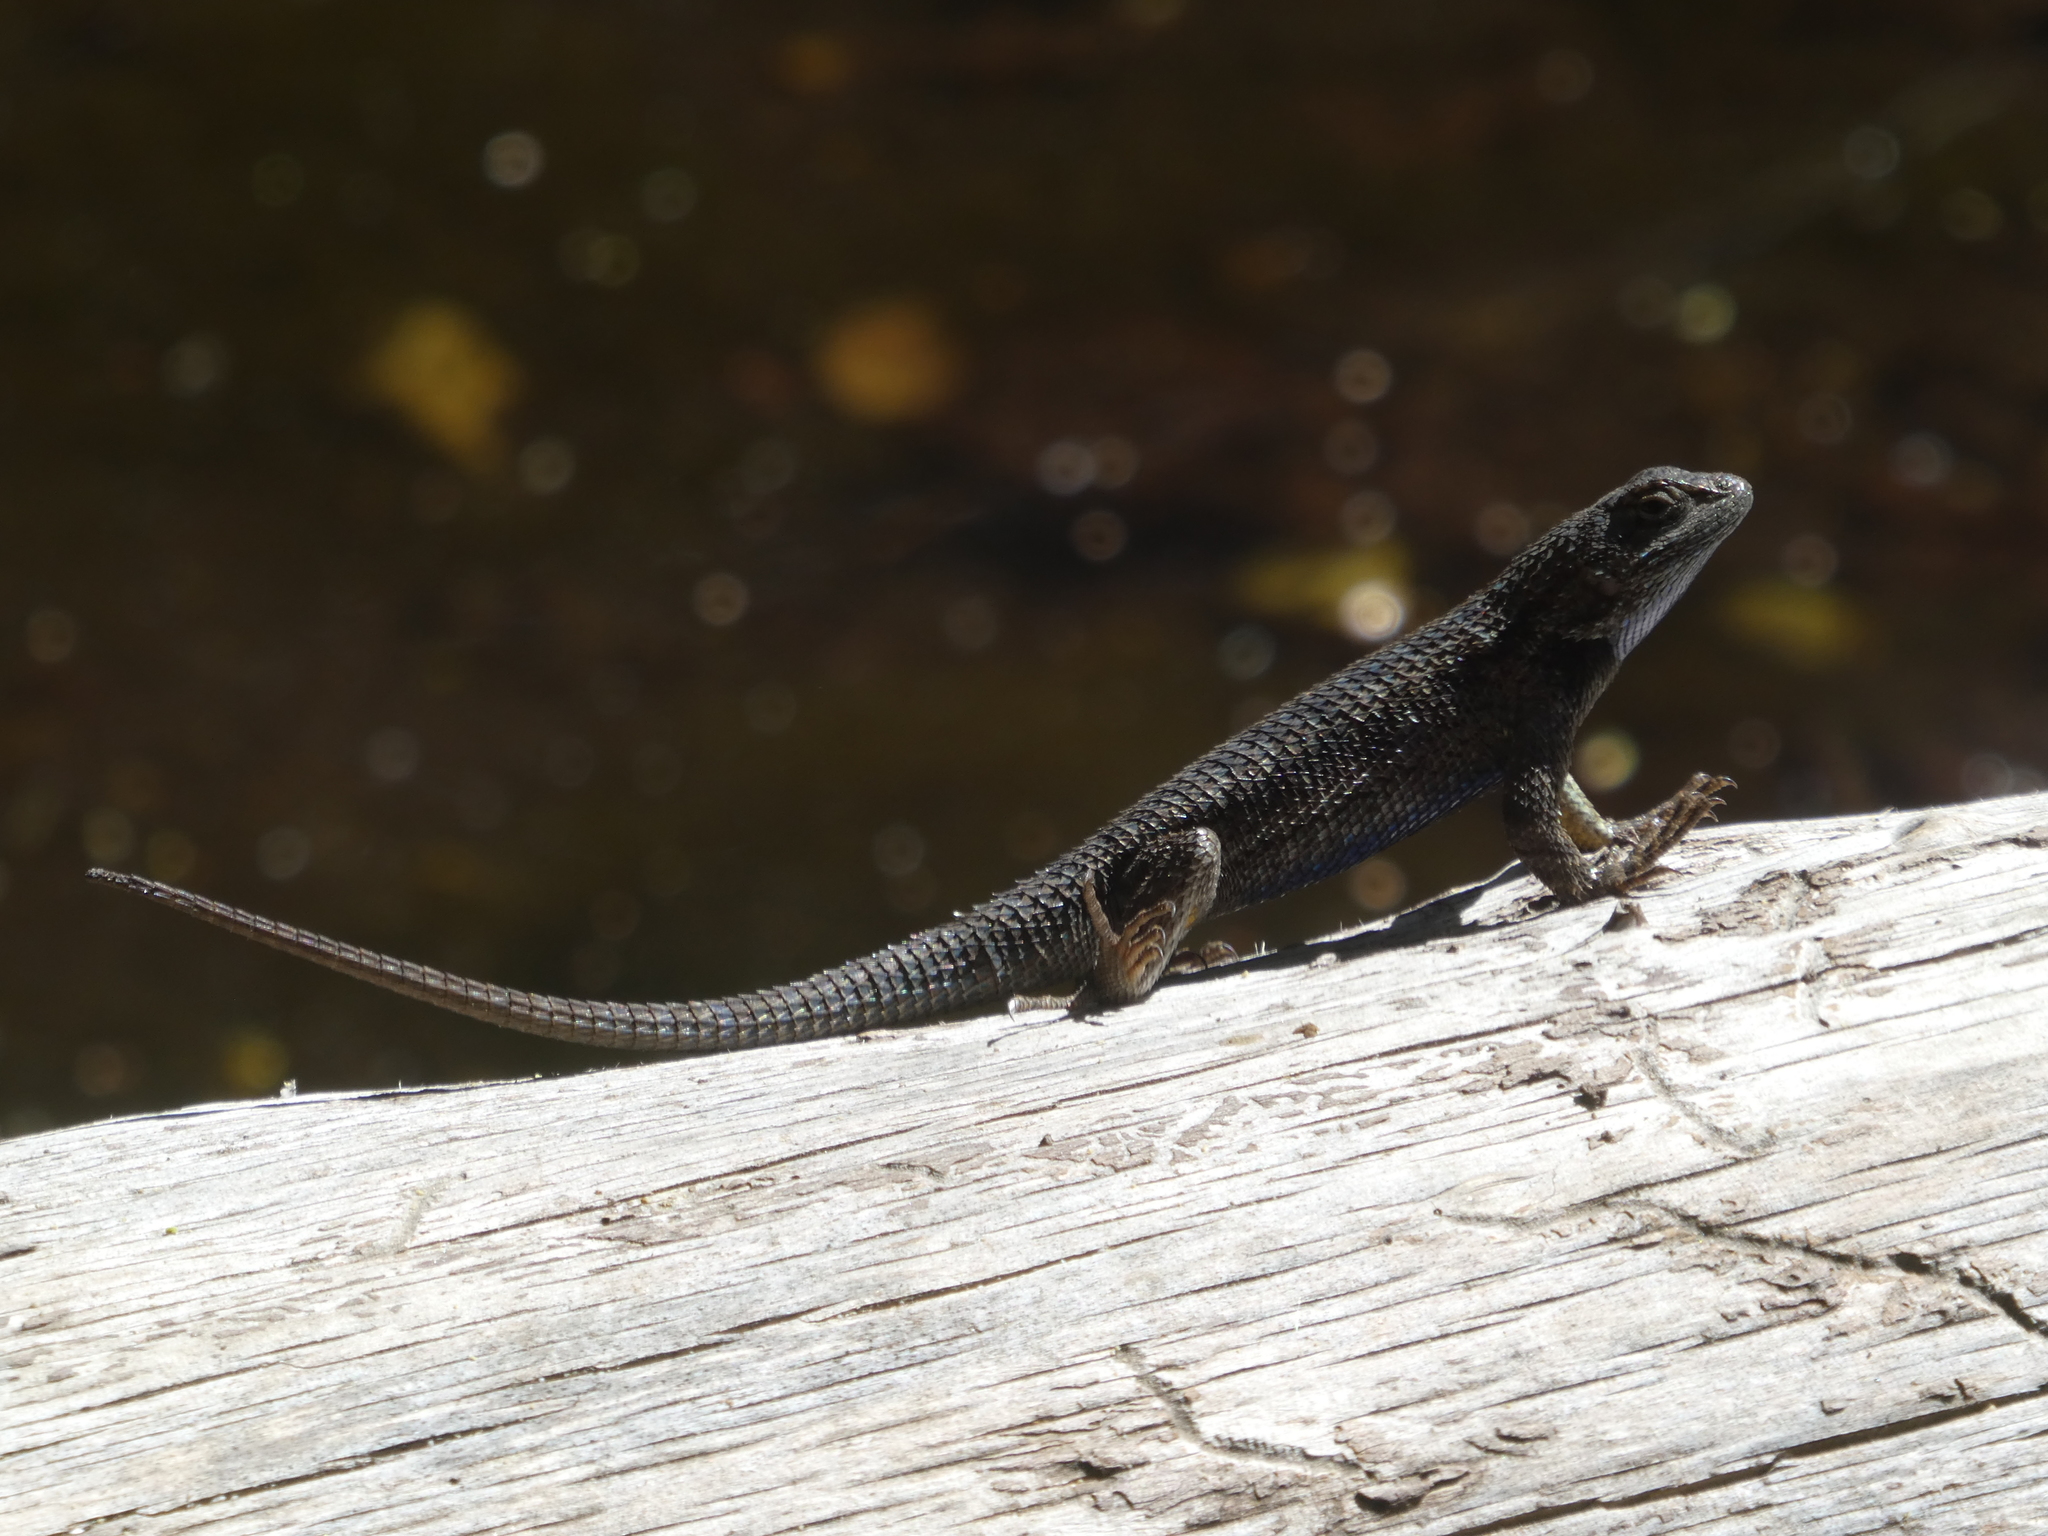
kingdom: Animalia
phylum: Chordata
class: Squamata
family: Phrynosomatidae
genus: Sceloporus
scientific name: Sceloporus occidentalis
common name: Western fence lizard
